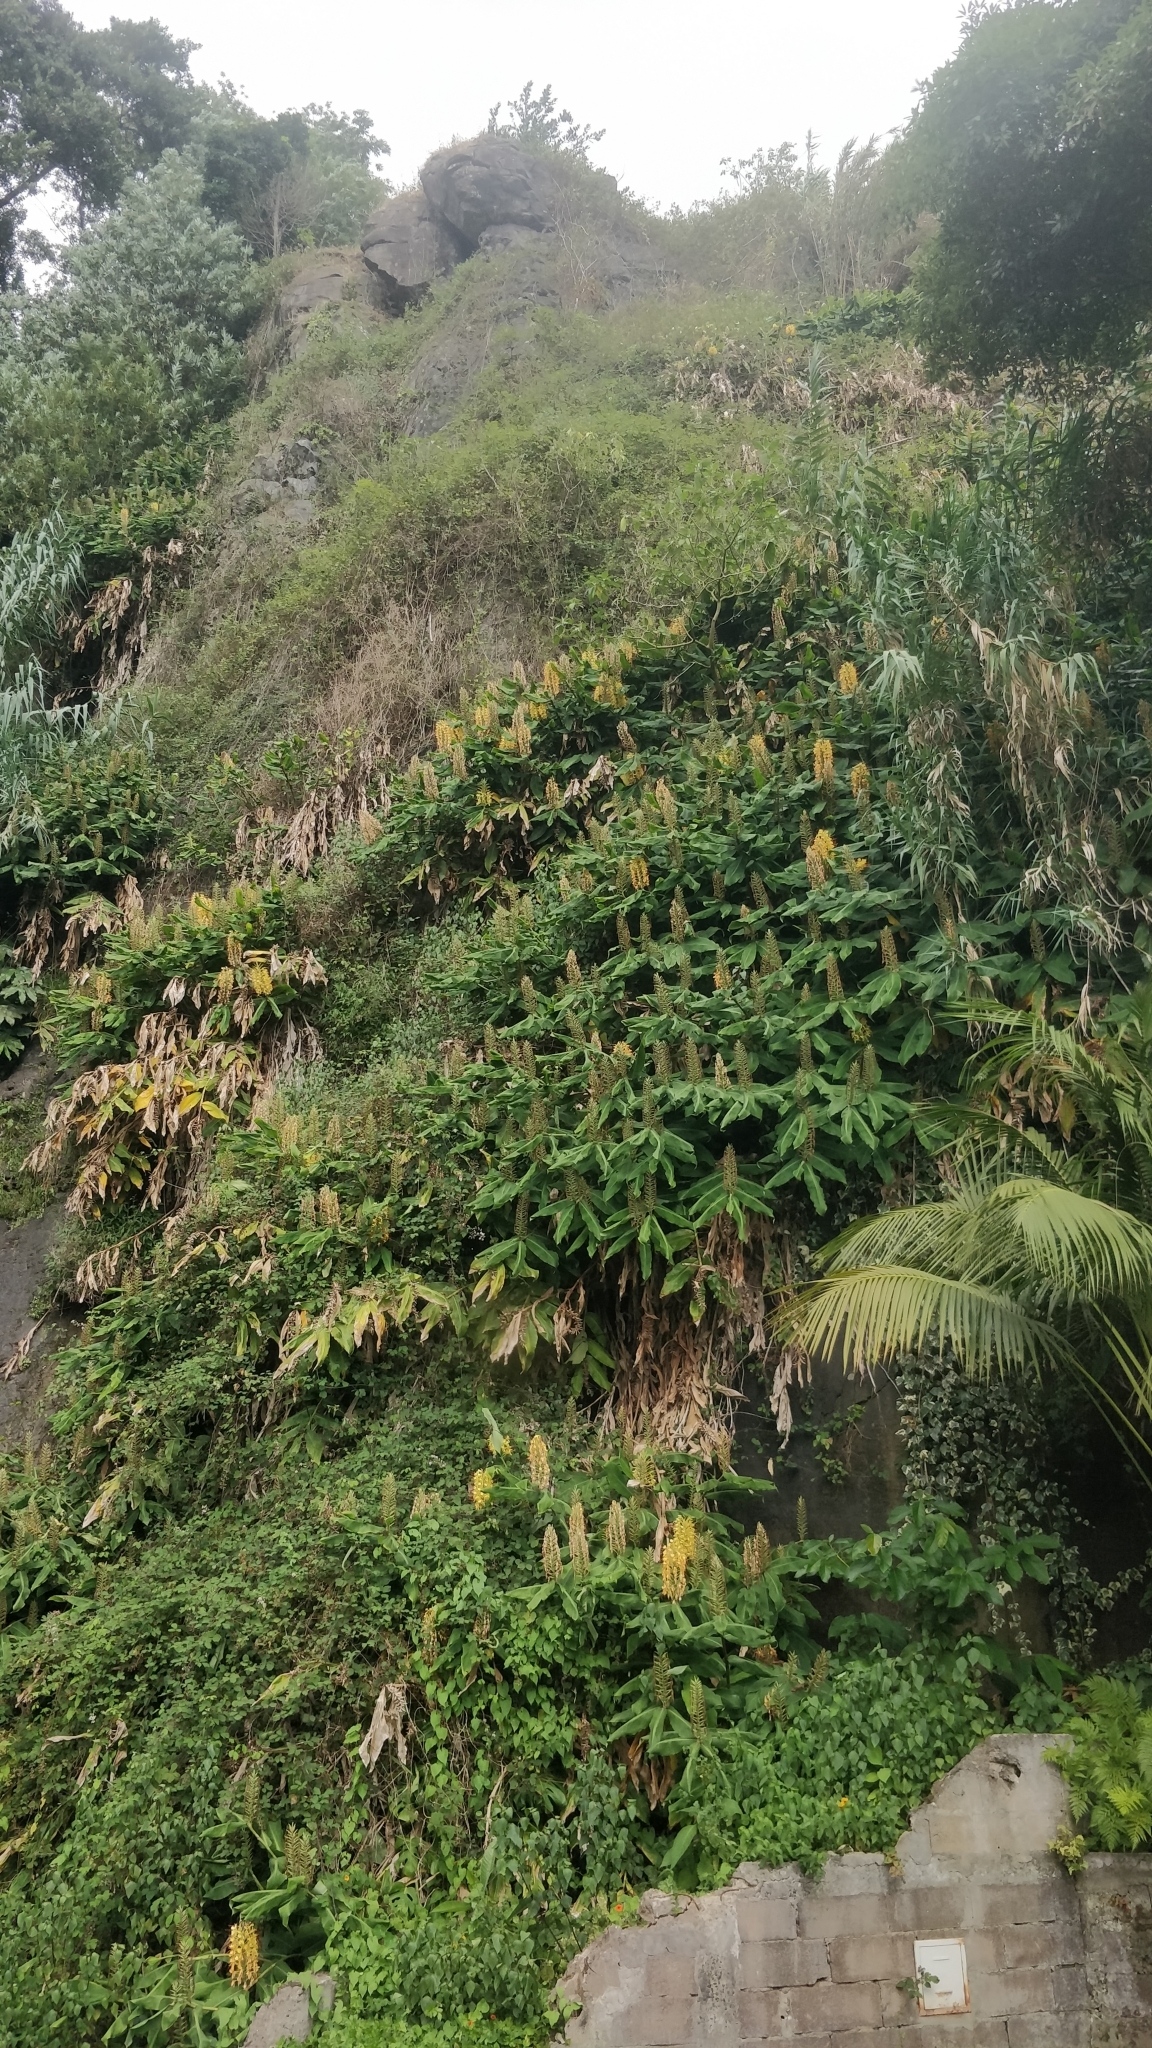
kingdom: Plantae
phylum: Tracheophyta
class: Liliopsida
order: Zingiberales
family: Zingiberaceae
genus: Hedychium
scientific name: Hedychium gardnerianum
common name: Himalayan ginger
